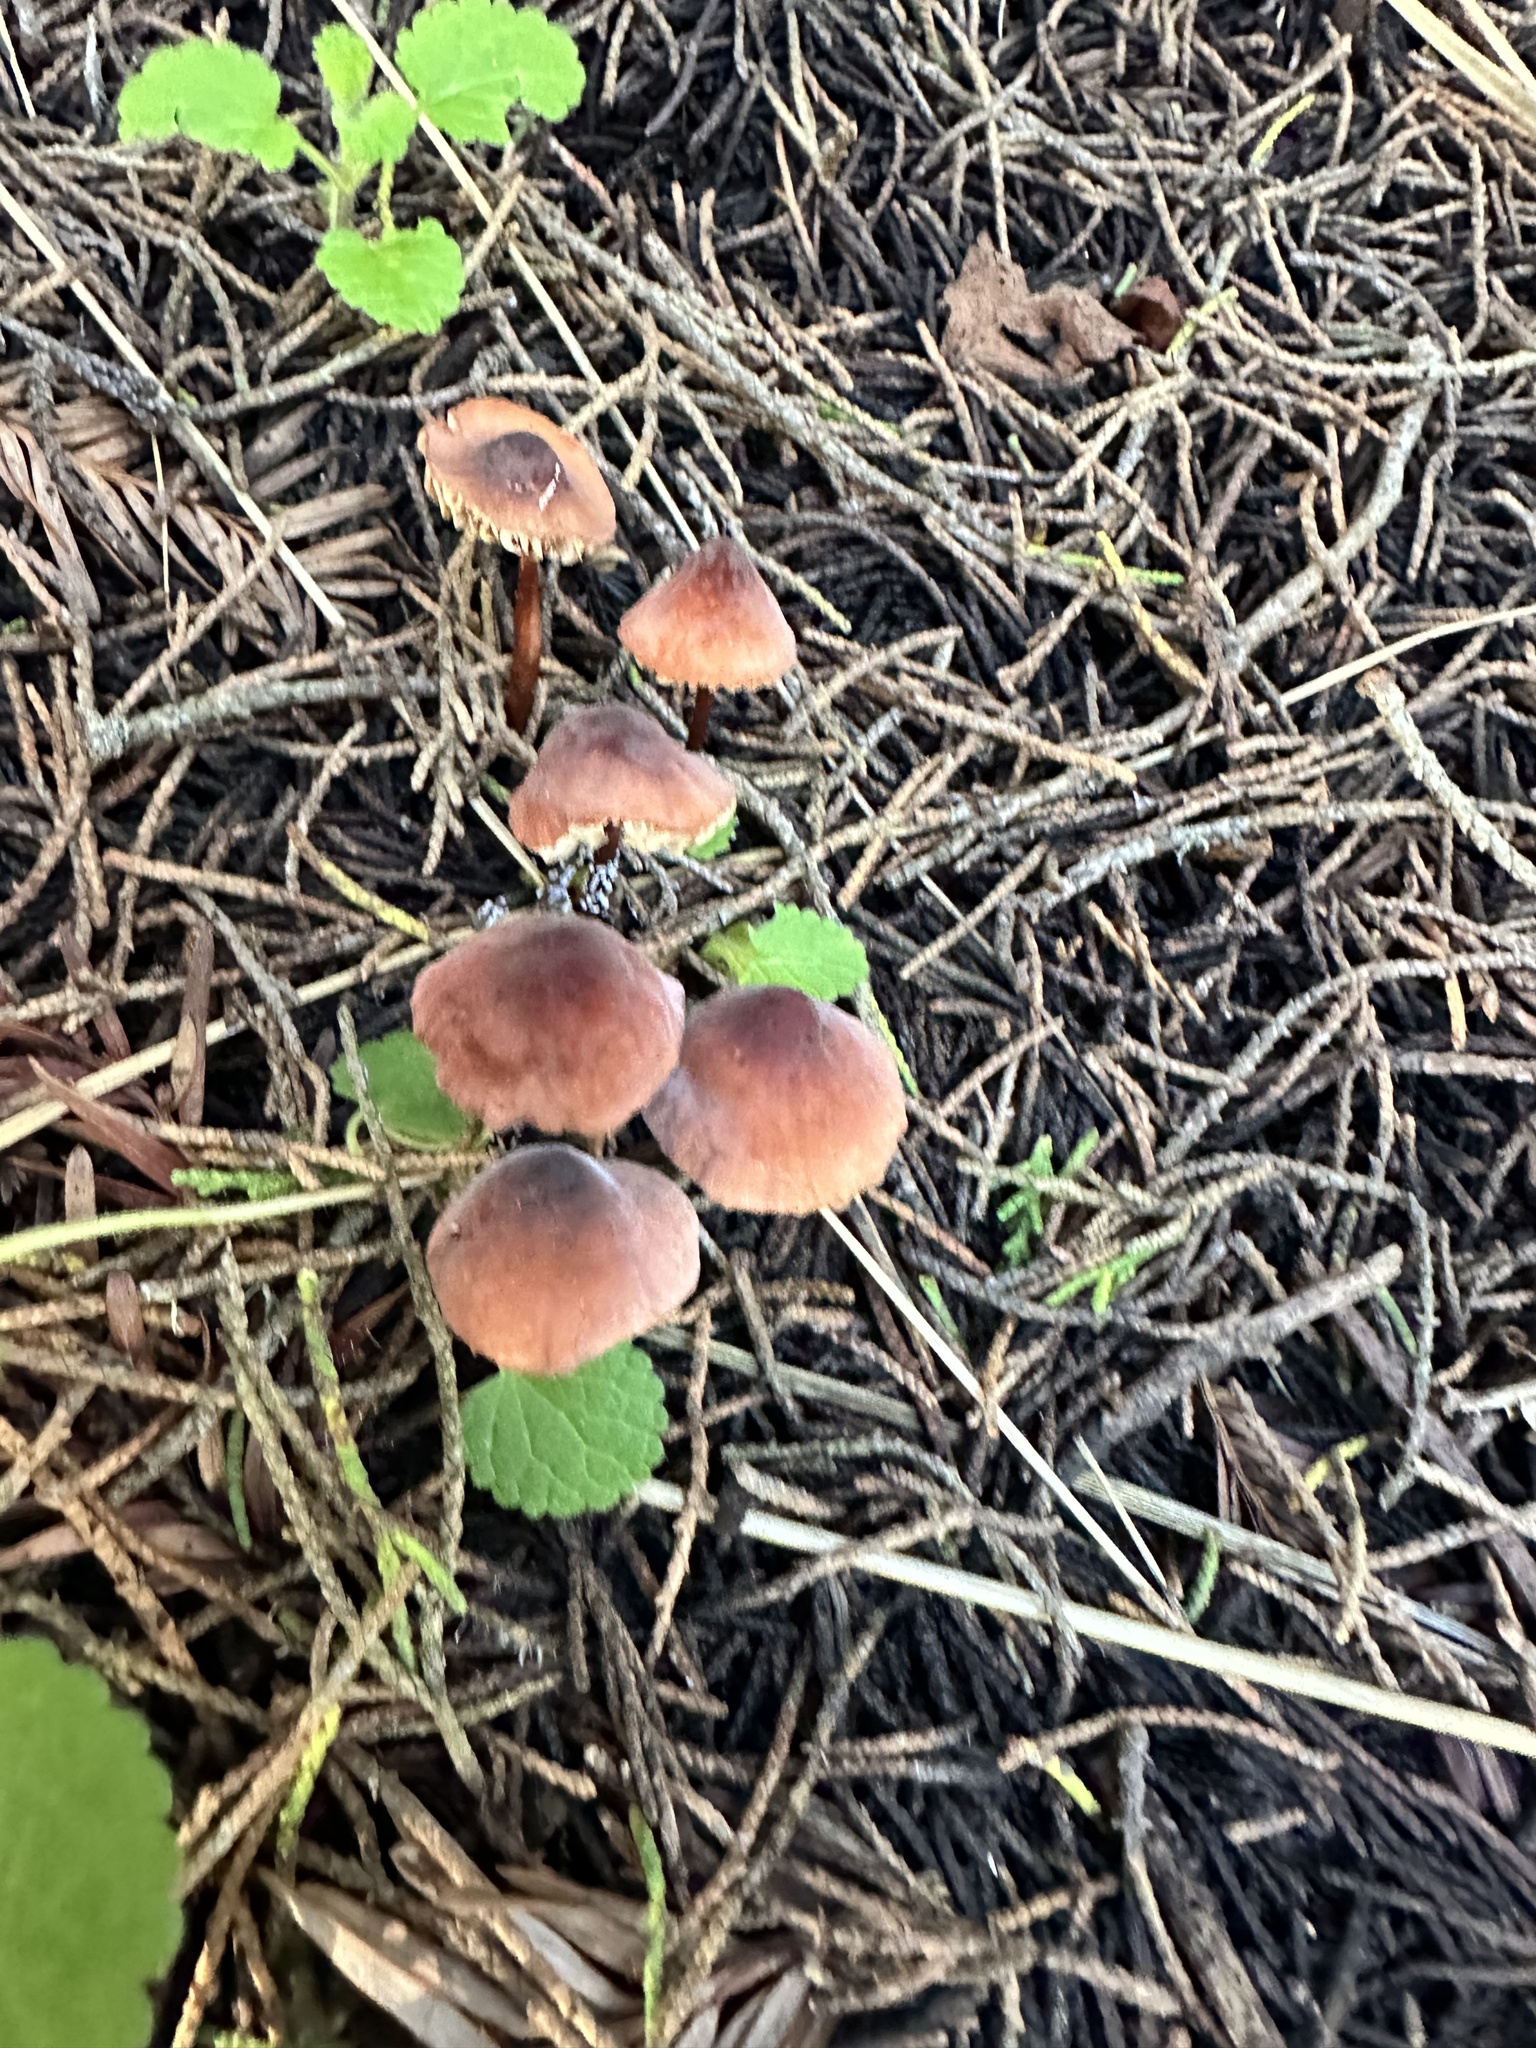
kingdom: Fungi
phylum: Basidiomycota
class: Agaricomycetes
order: Agaricales
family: Marasmiaceae
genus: Marasmius
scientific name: Marasmius plicatulus
